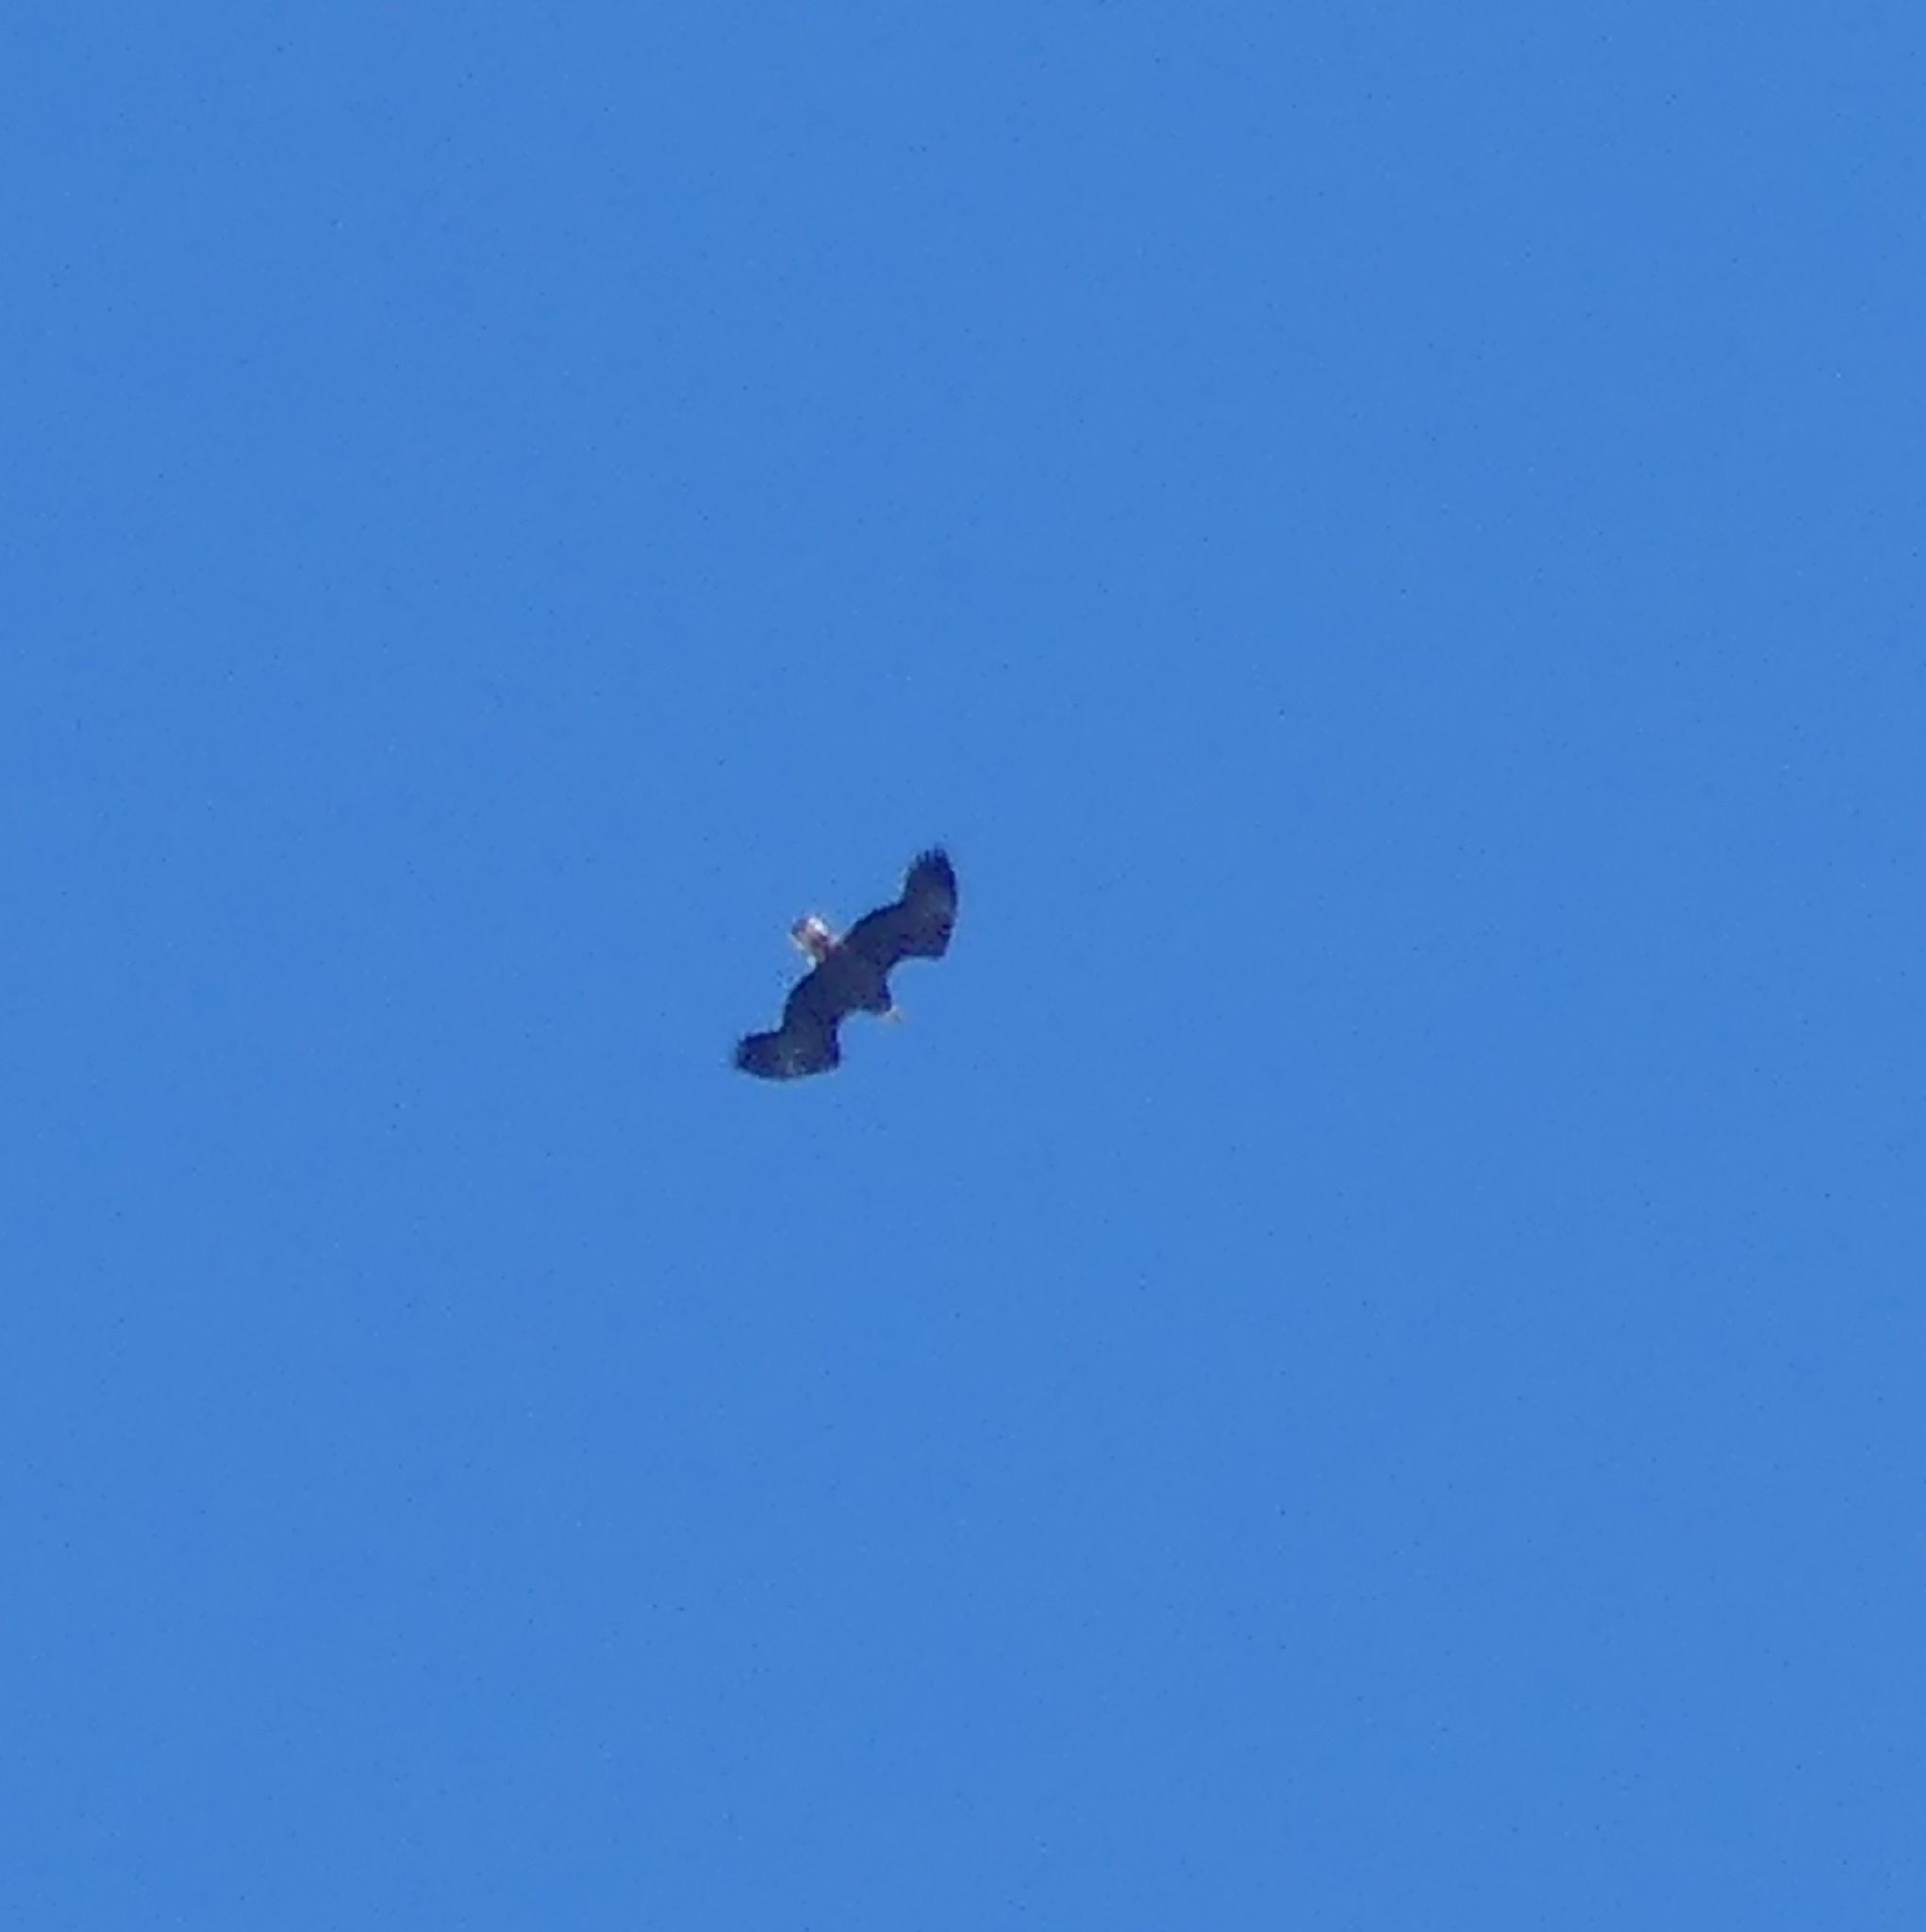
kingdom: Animalia
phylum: Chordata
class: Aves
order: Accipitriformes
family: Accipitridae
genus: Haliaeetus
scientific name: Haliaeetus leucocephalus
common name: Bald eagle
